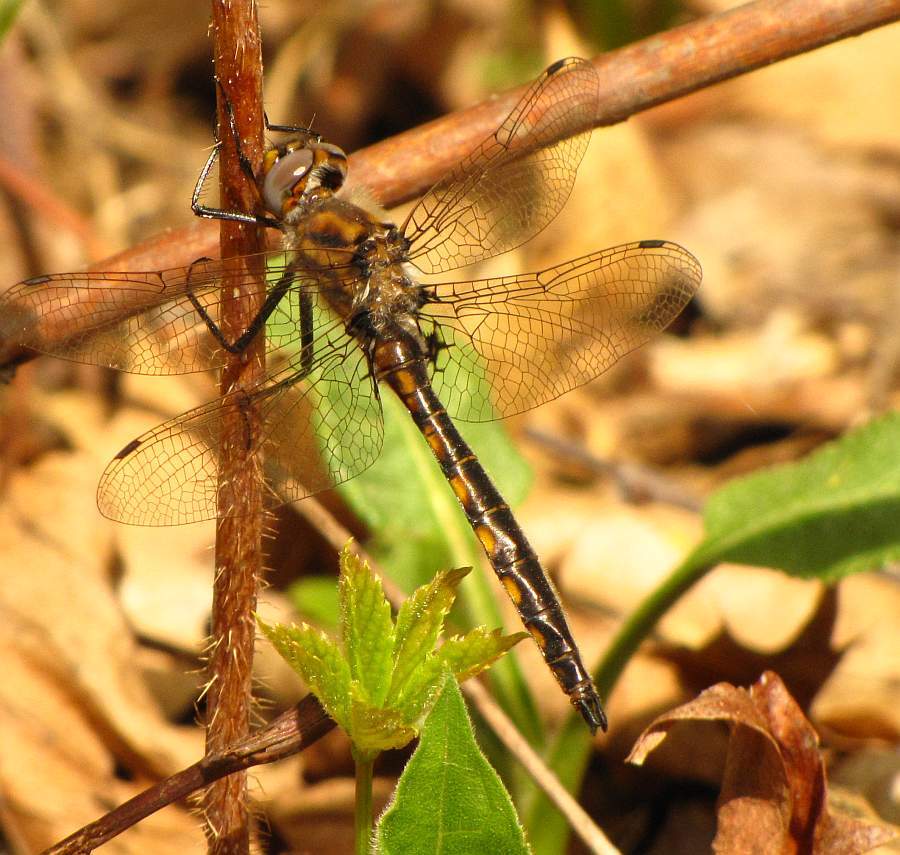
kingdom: Animalia
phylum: Arthropoda
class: Insecta
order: Odonata
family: Corduliidae
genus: Epitheca
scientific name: Epitheca canis
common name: Beaverpond baskettail
